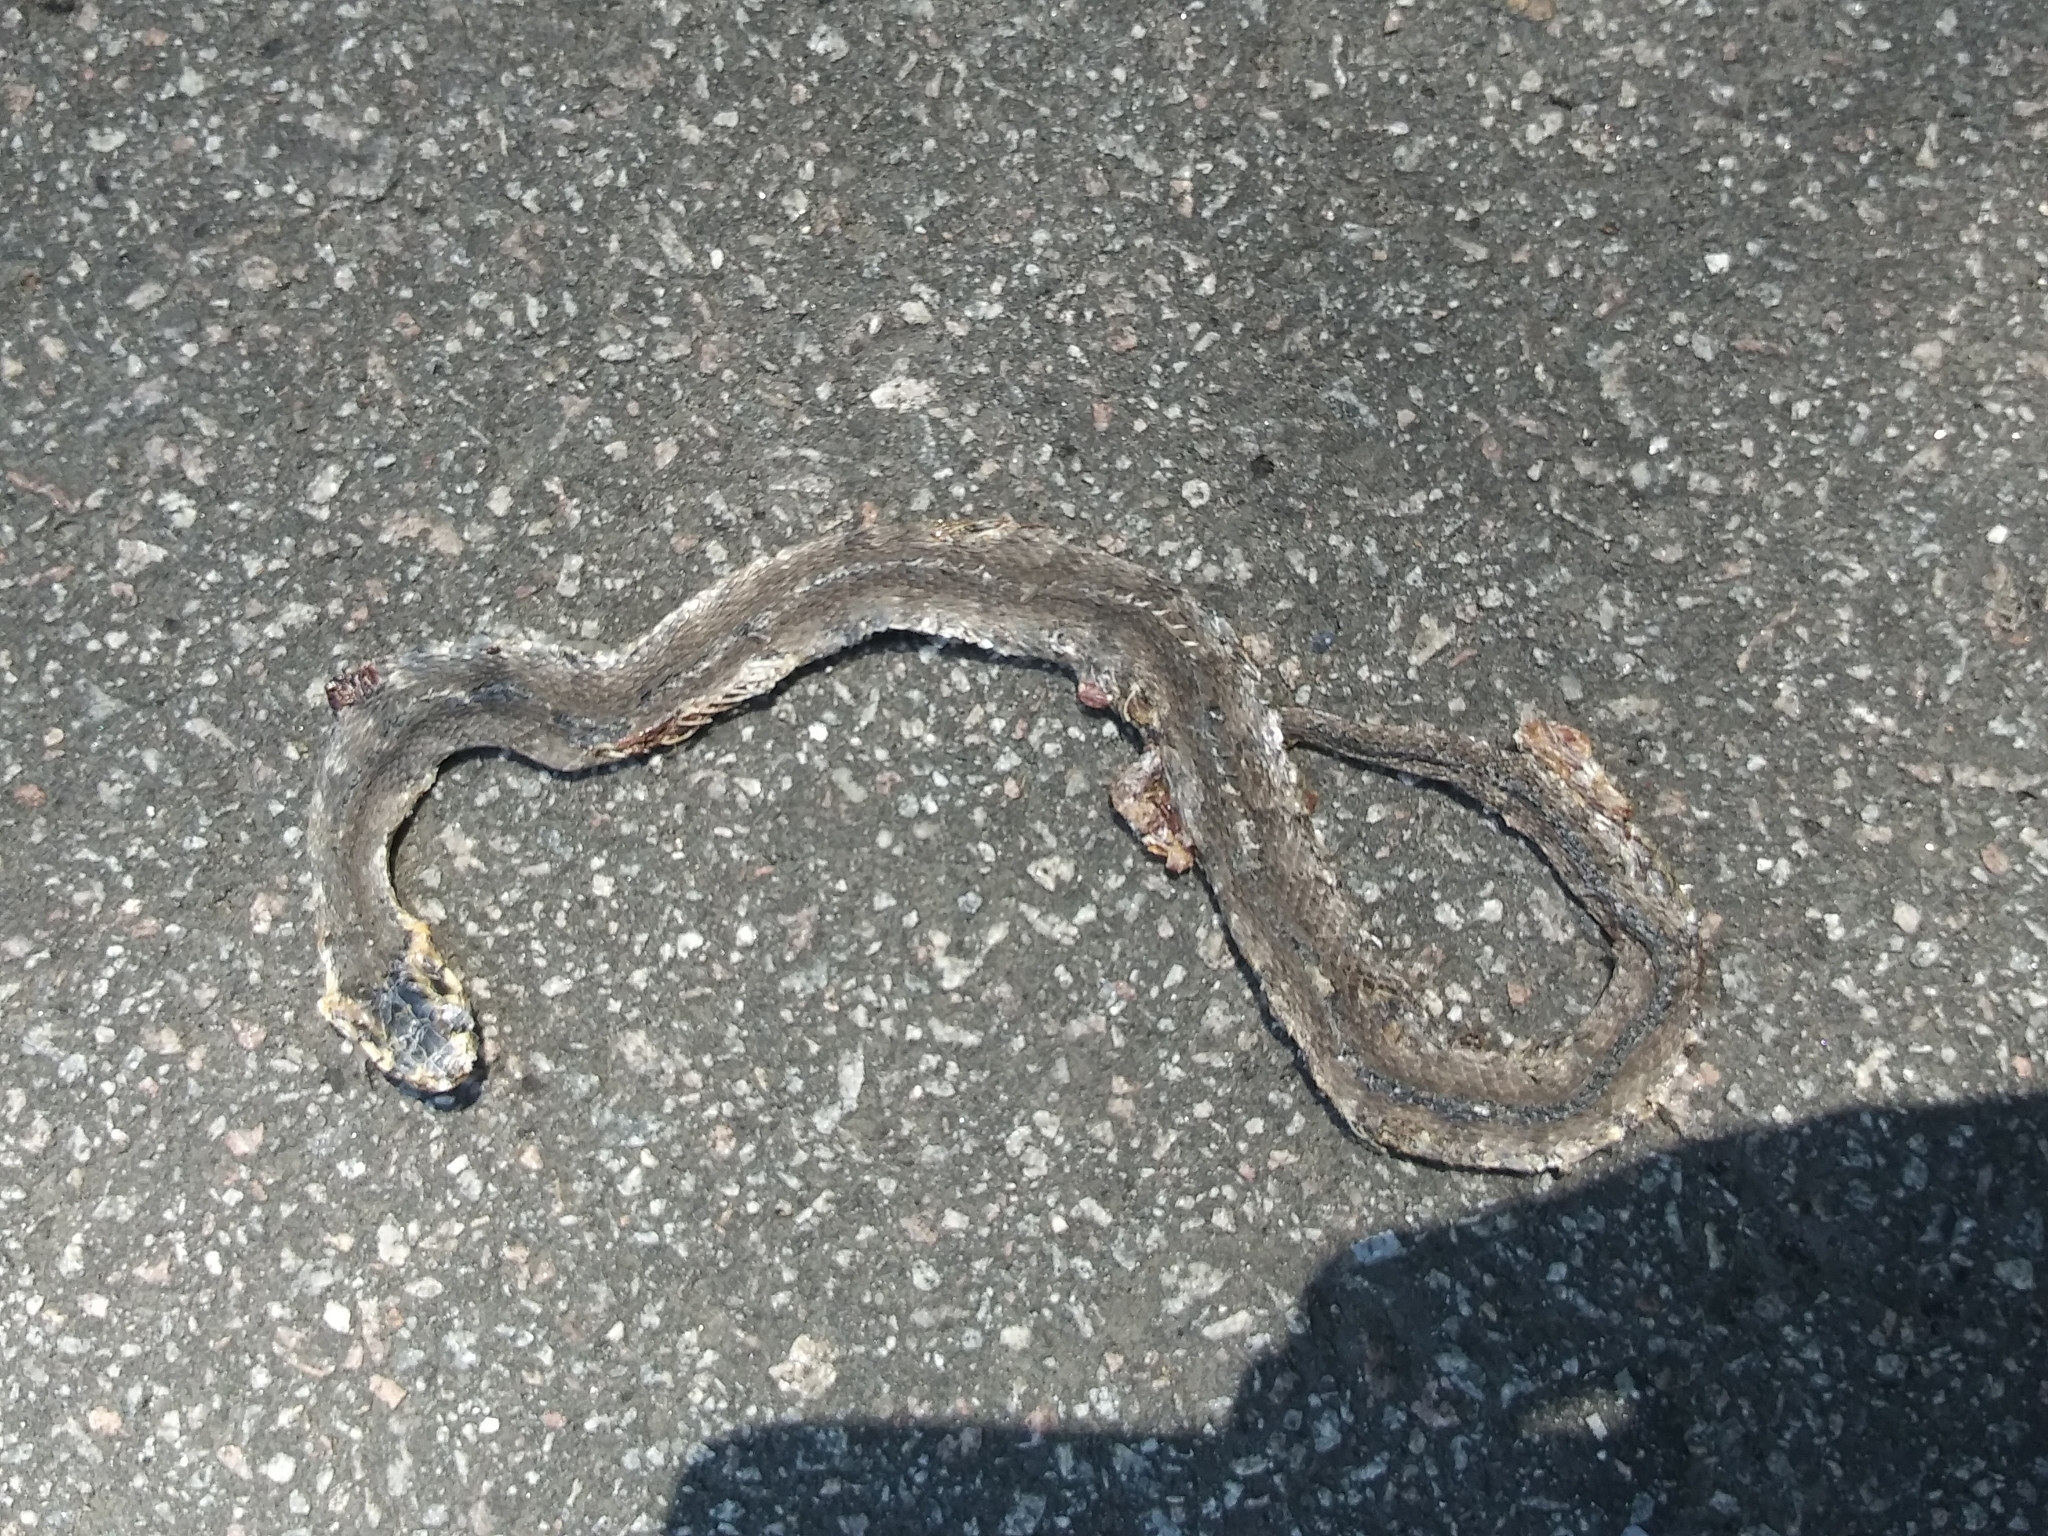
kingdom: Animalia
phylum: Chordata
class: Squamata
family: Colubridae
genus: Nerodia
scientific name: Nerodia fasciata
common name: Southern water snake
